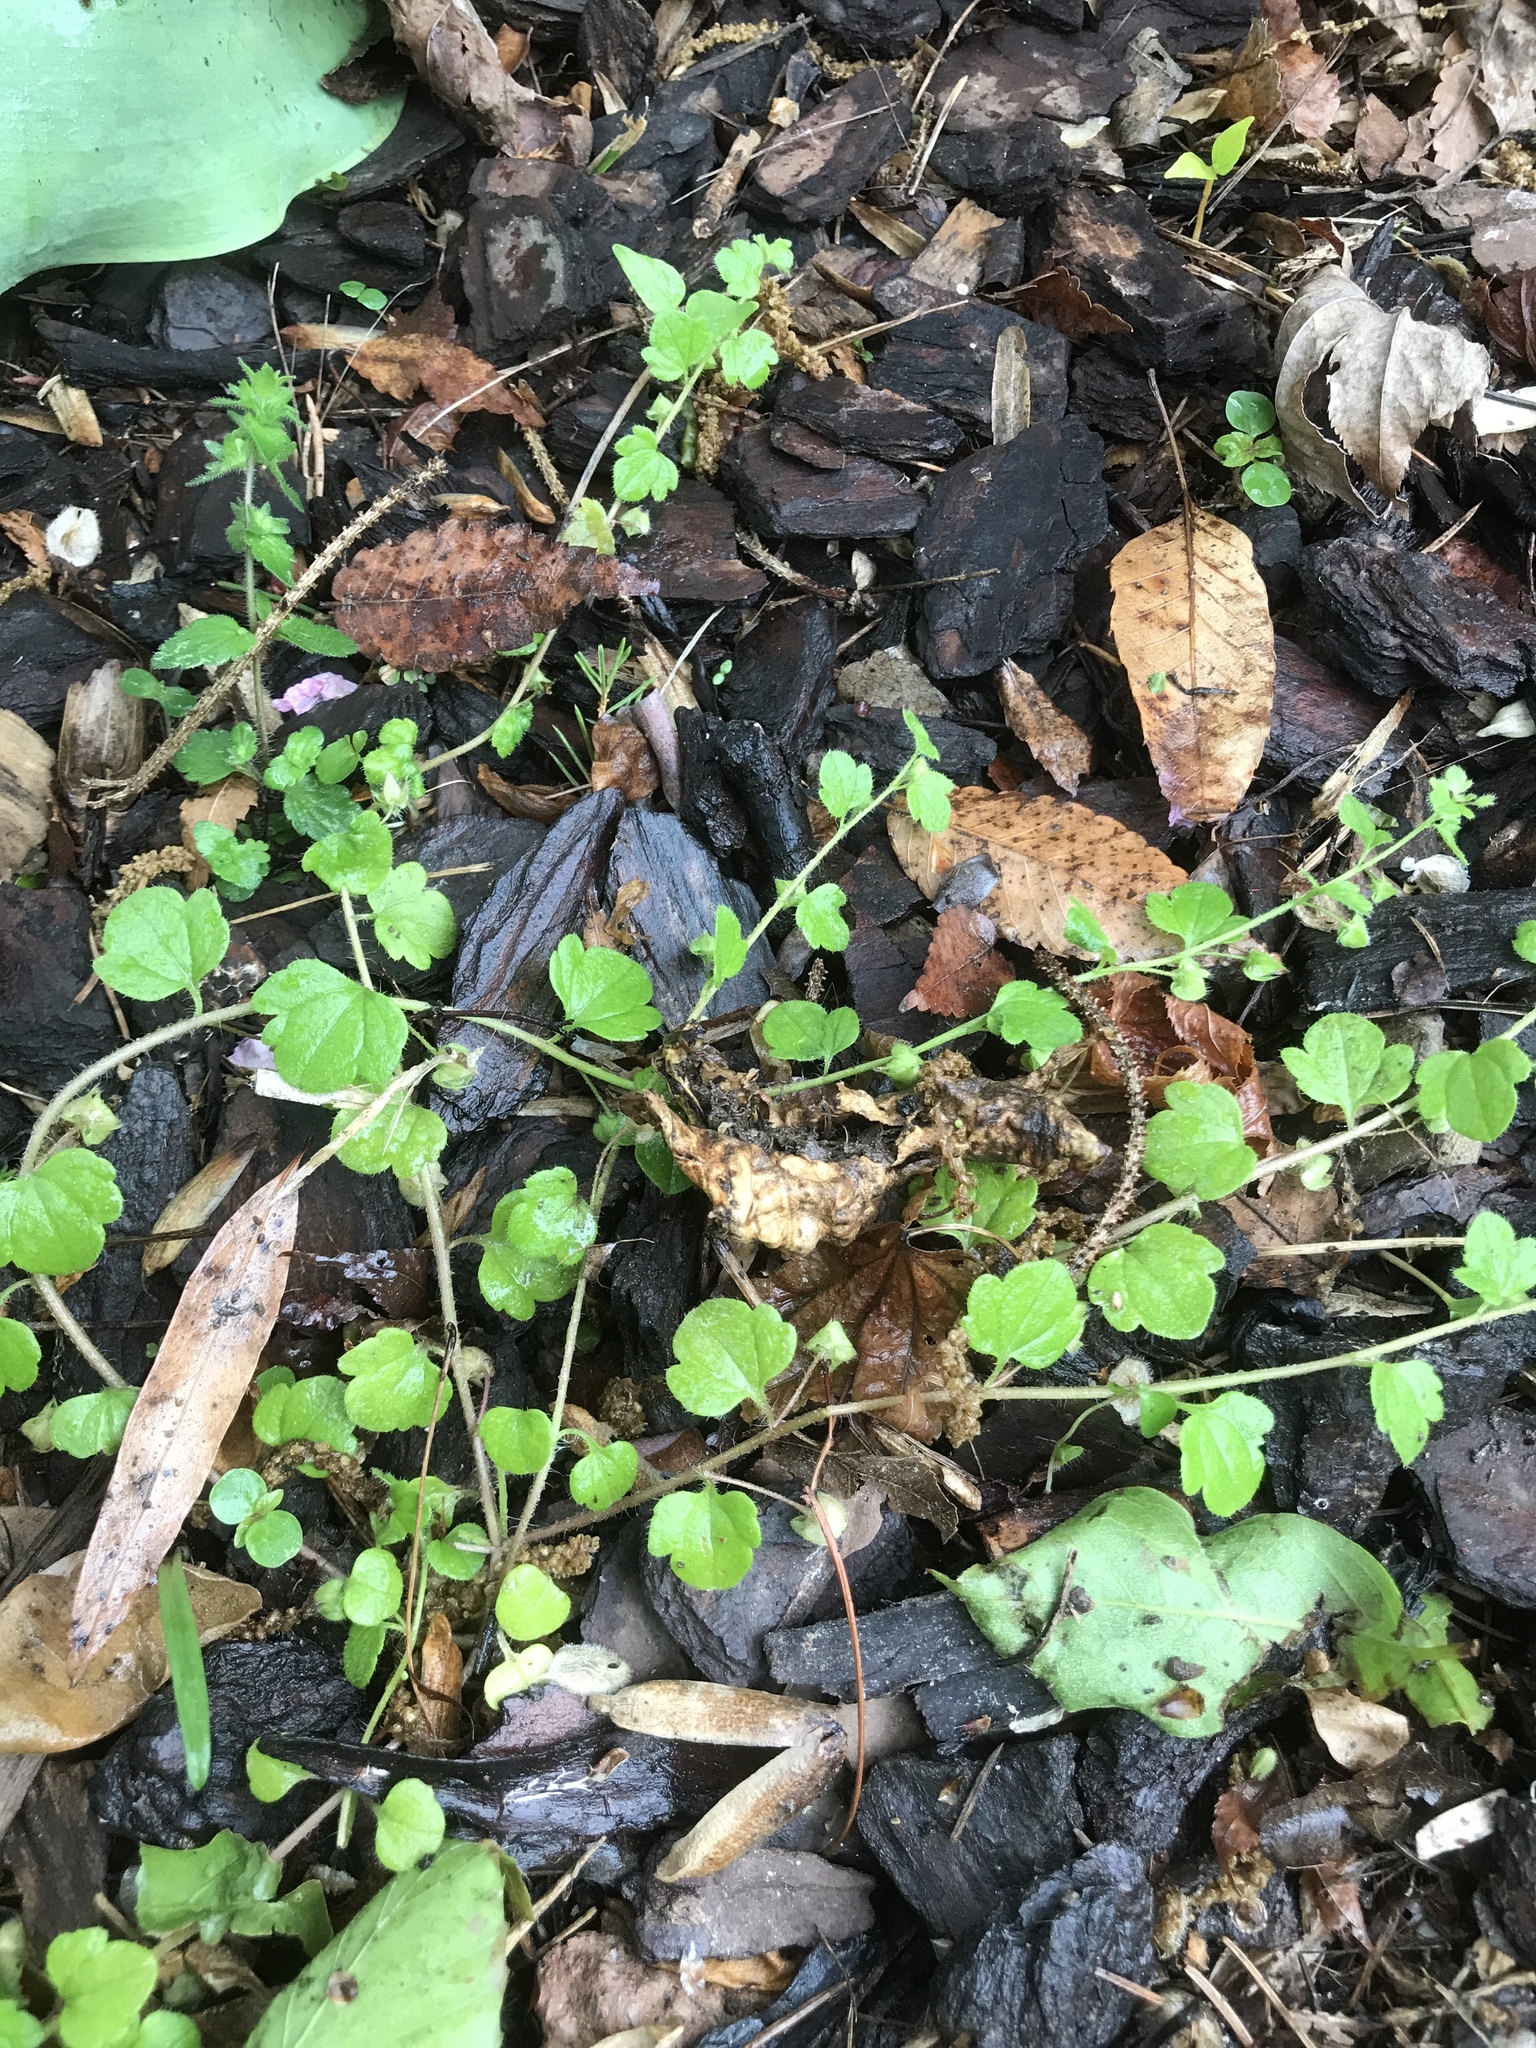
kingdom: Plantae
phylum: Tracheophyta
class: Magnoliopsida
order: Lamiales
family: Plantaginaceae
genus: Veronica
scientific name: Veronica hederifolia
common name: Ivy-leaved speedwell
